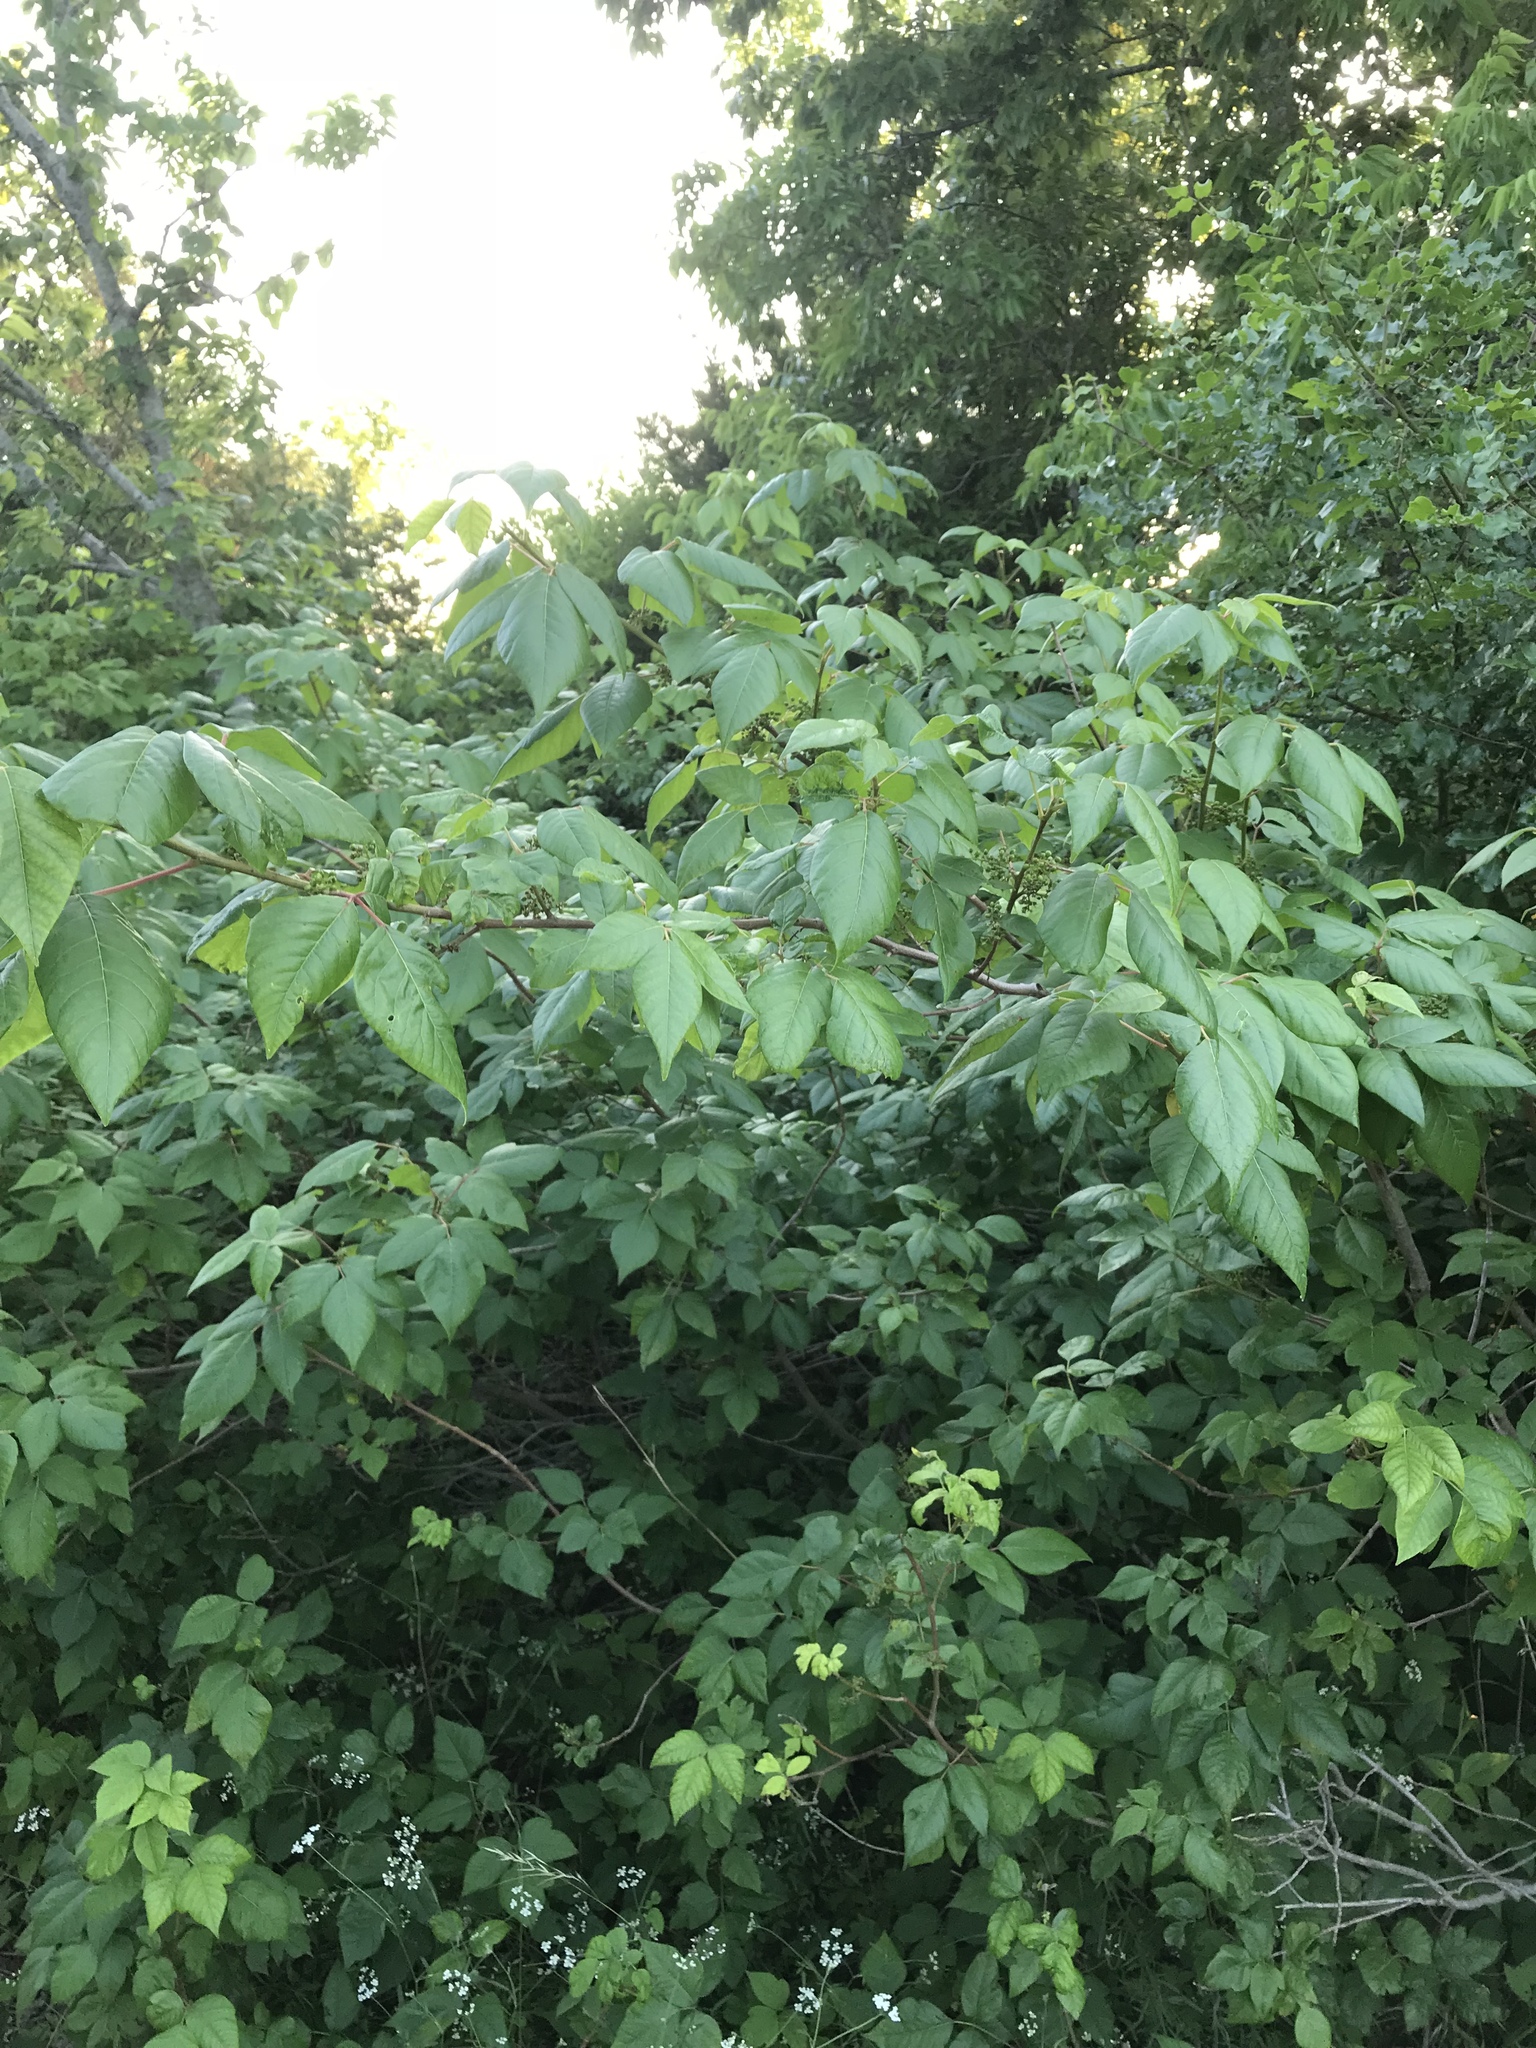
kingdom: Plantae
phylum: Tracheophyta
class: Magnoliopsida
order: Sapindales
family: Anacardiaceae
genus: Toxicodendron
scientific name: Toxicodendron radicans
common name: Poison ivy
